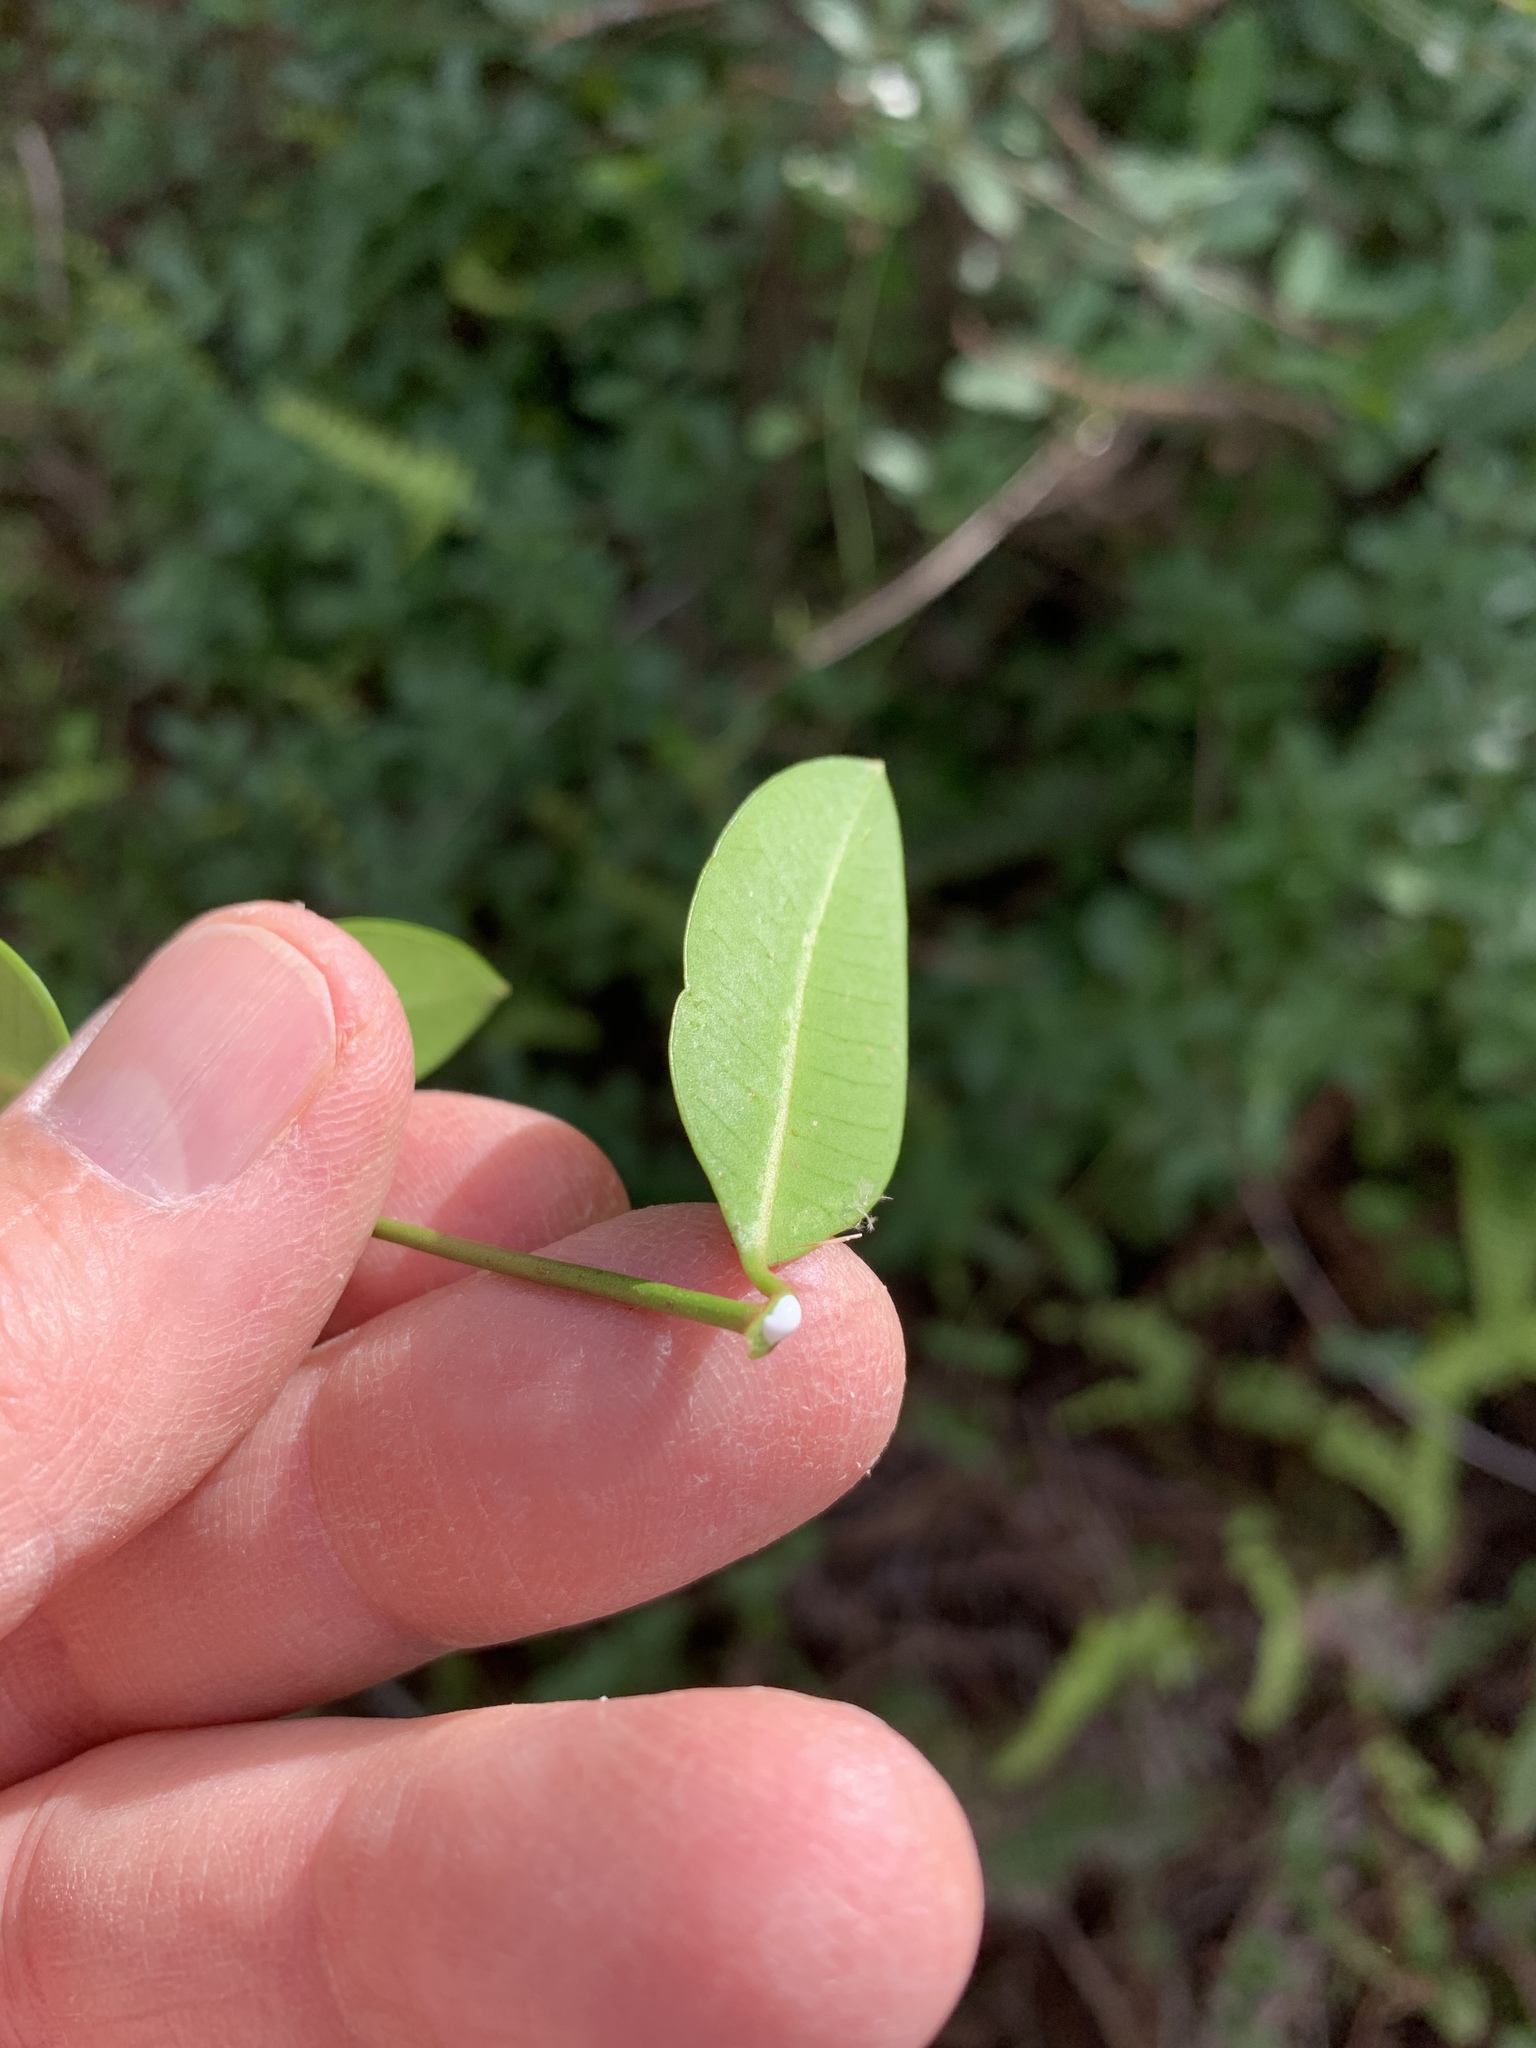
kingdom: Plantae
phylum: Tracheophyta
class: Magnoliopsida
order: Gentianales
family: Apocynaceae
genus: Secamone
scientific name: Secamone alpini
